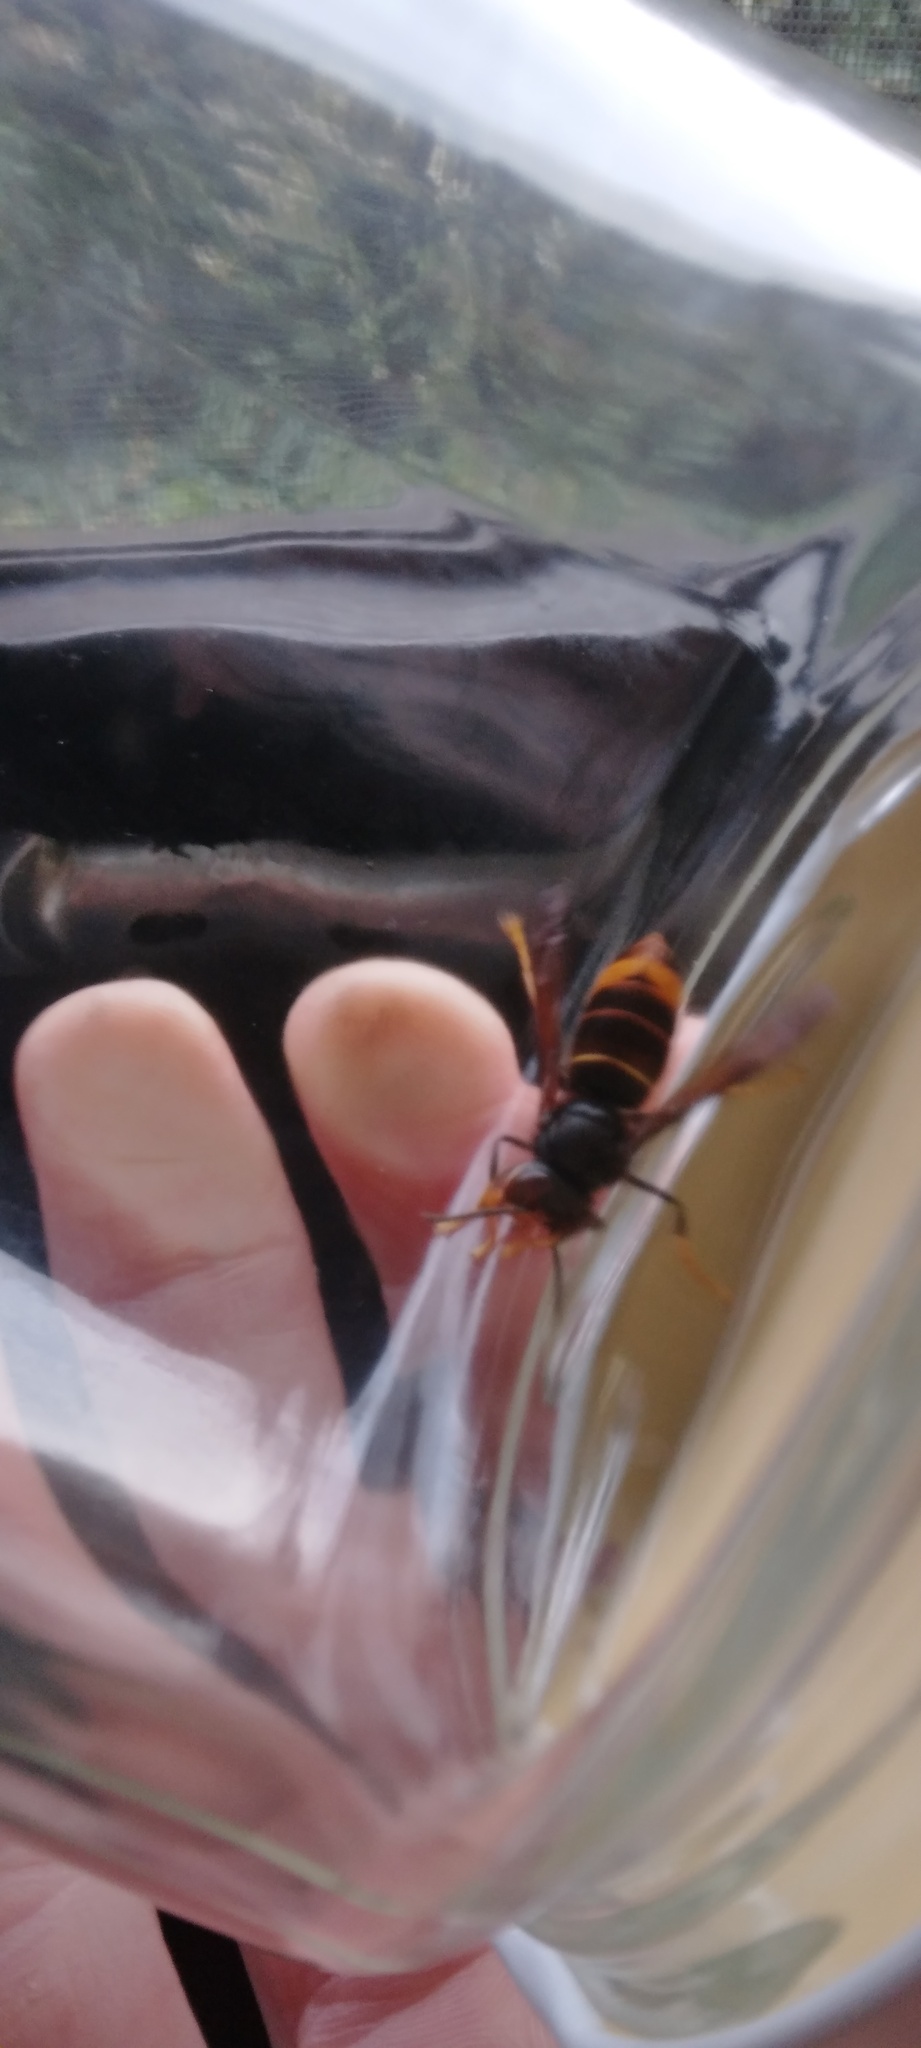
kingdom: Animalia
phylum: Arthropoda
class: Insecta
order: Hymenoptera
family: Vespidae
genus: Vespa
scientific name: Vespa velutina
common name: Asian hornet
